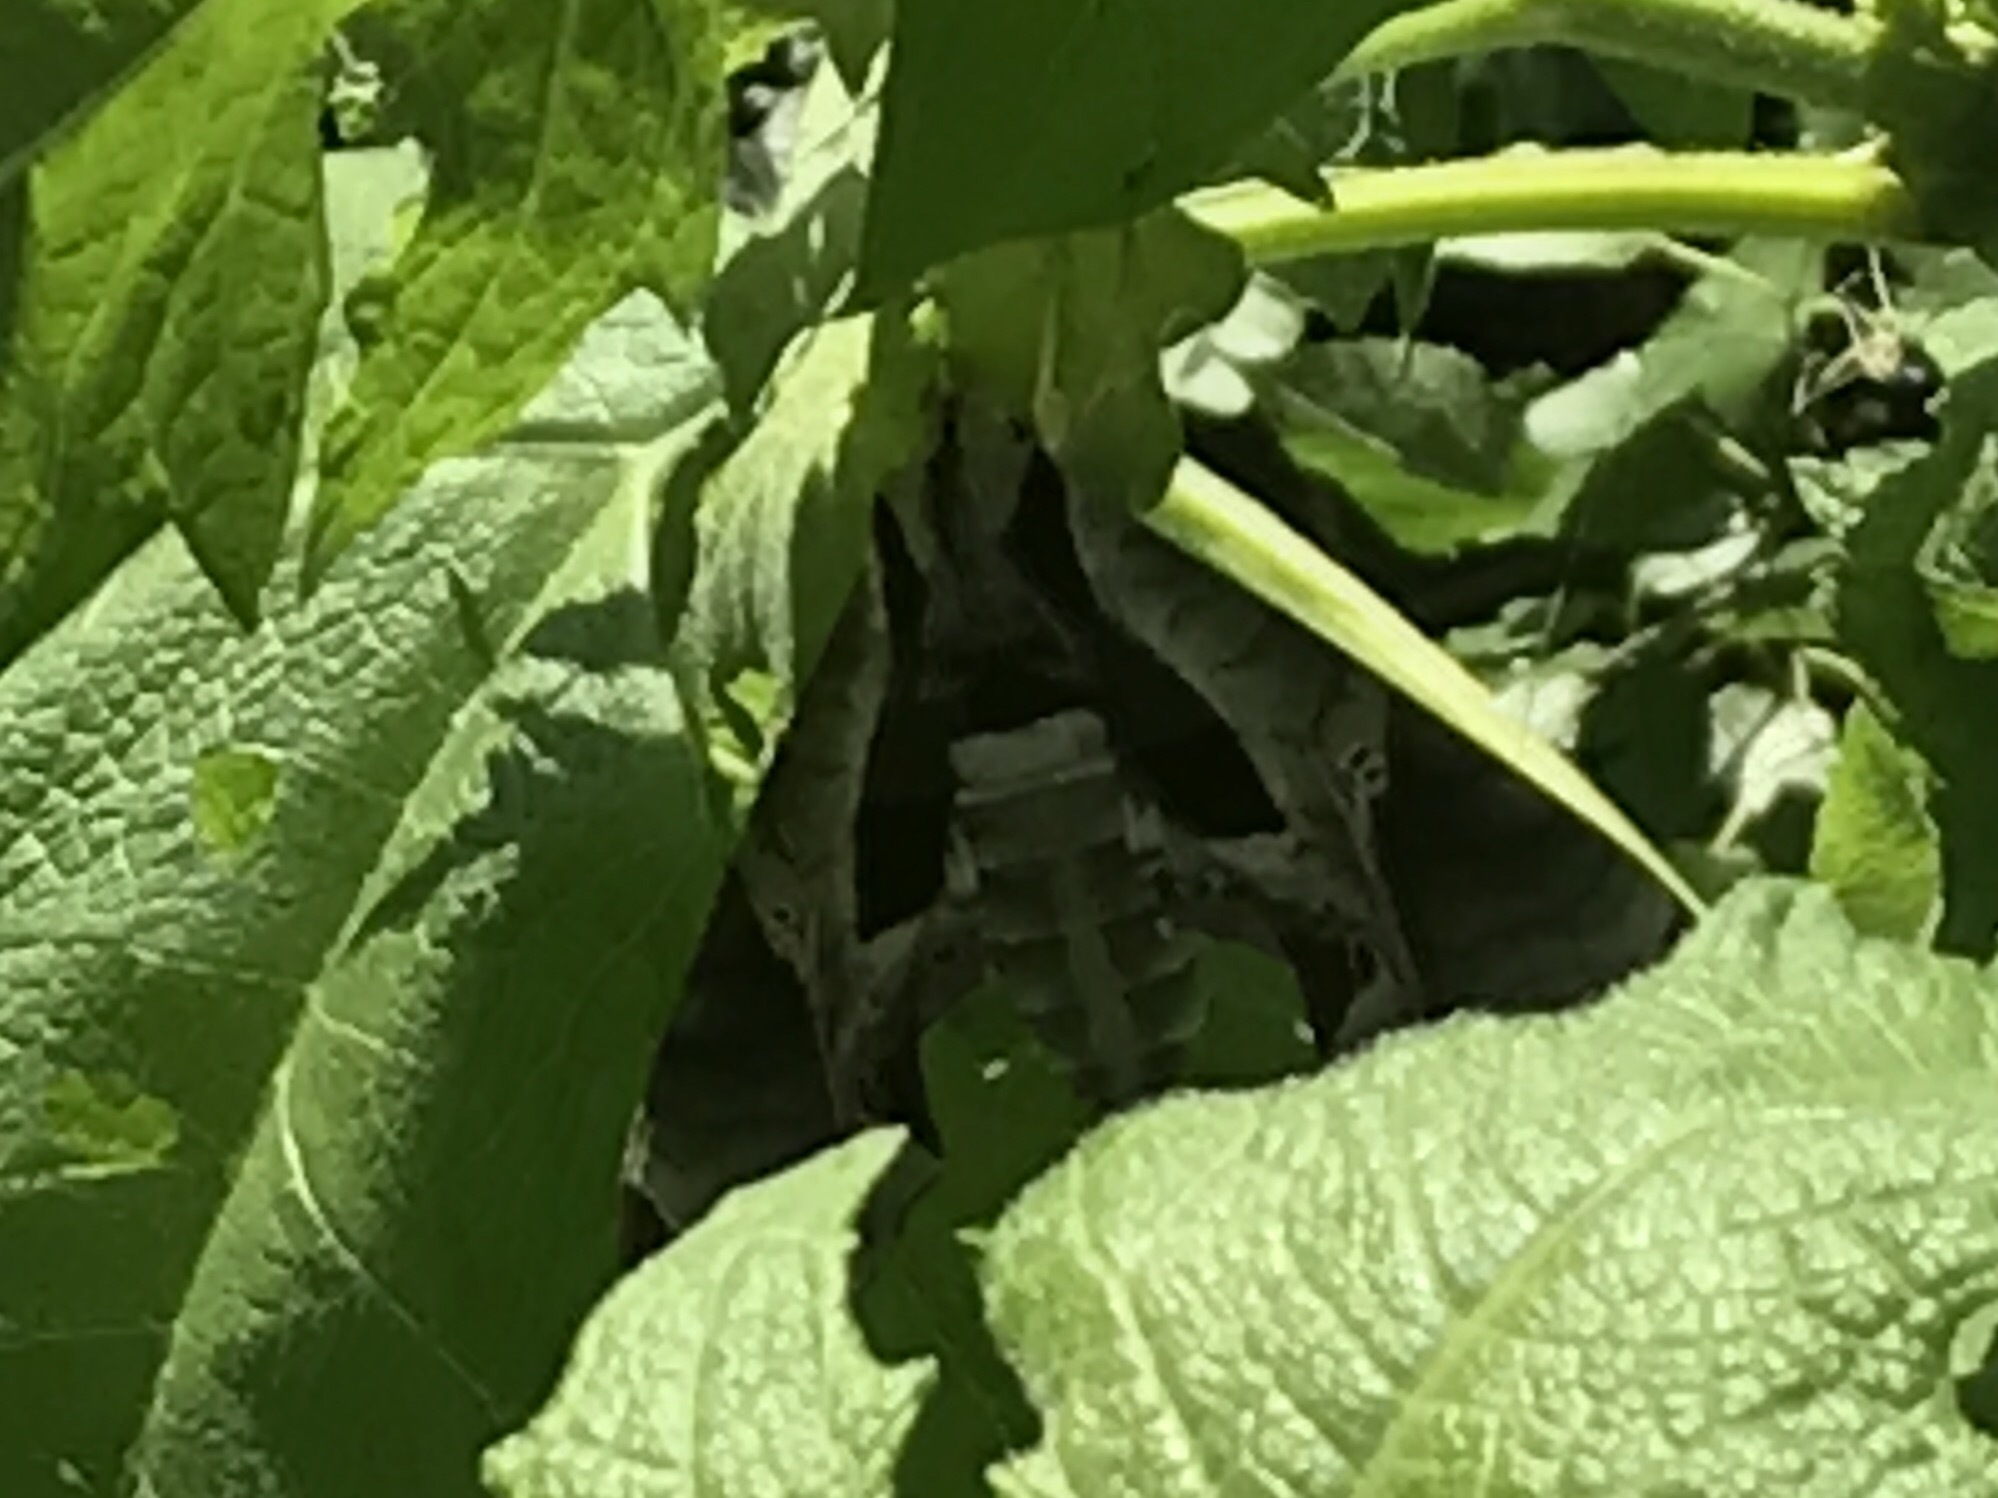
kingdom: Animalia
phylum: Arthropoda
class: Insecta
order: Lepidoptera
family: Sphingidae
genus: Eumorpha
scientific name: Eumorpha pandorus
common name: Pandora sphinx
